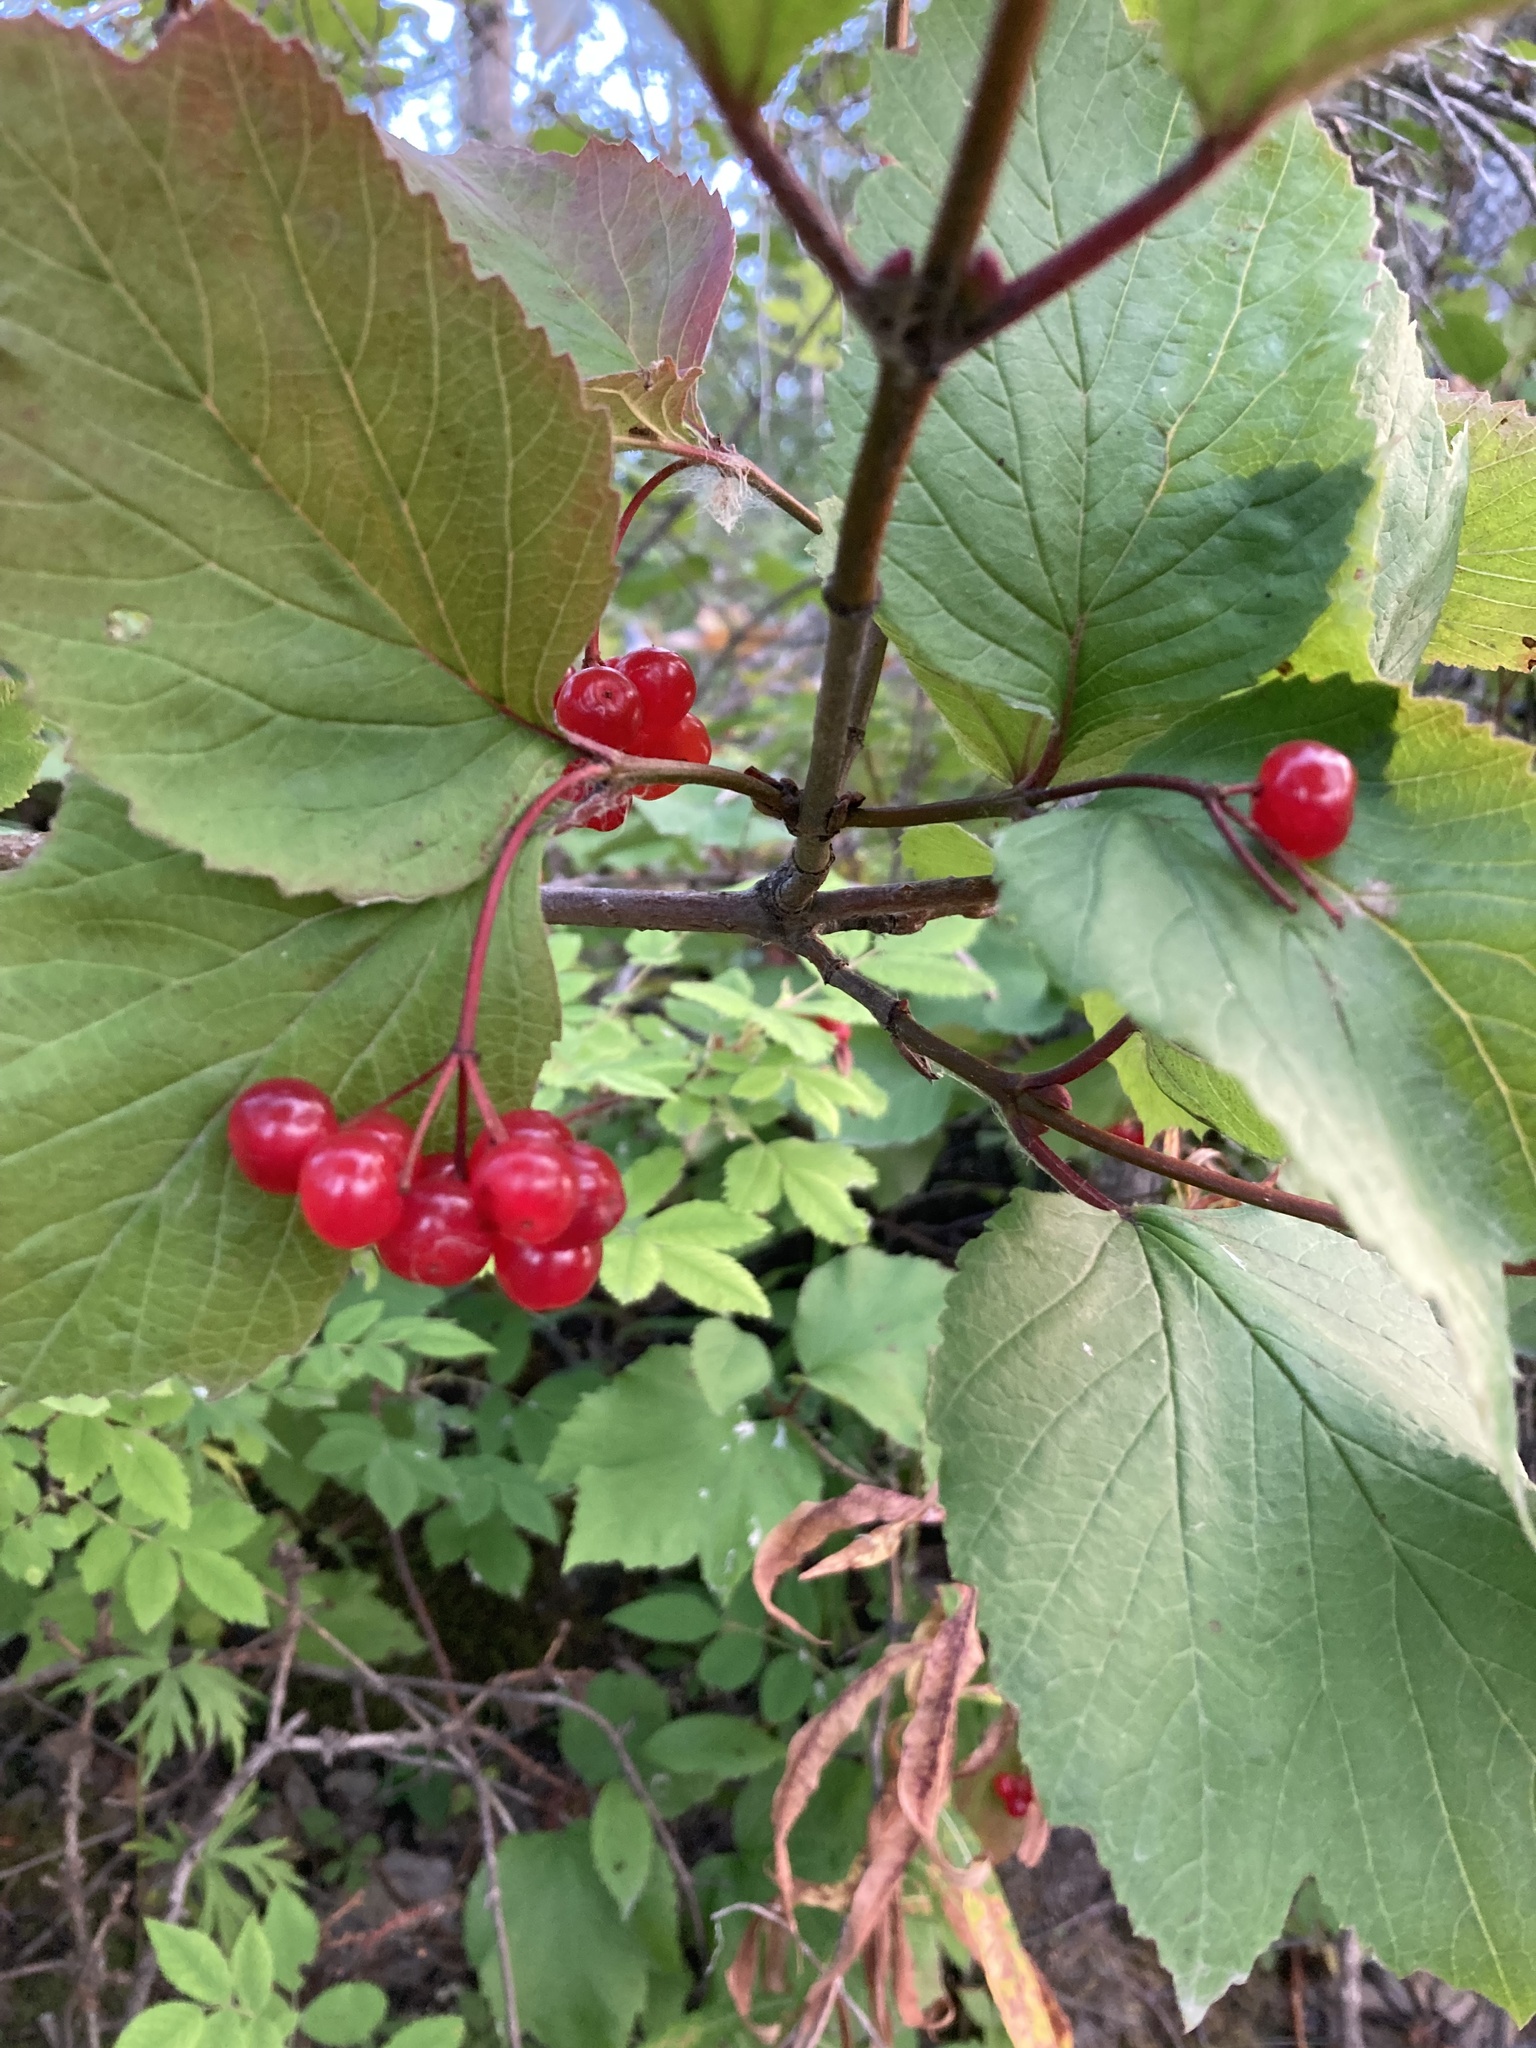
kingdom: Plantae
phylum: Tracheophyta
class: Magnoliopsida
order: Dipsacales
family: Viburnaceae
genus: Viburnum
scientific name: Viburnum edule
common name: Mooseberry
